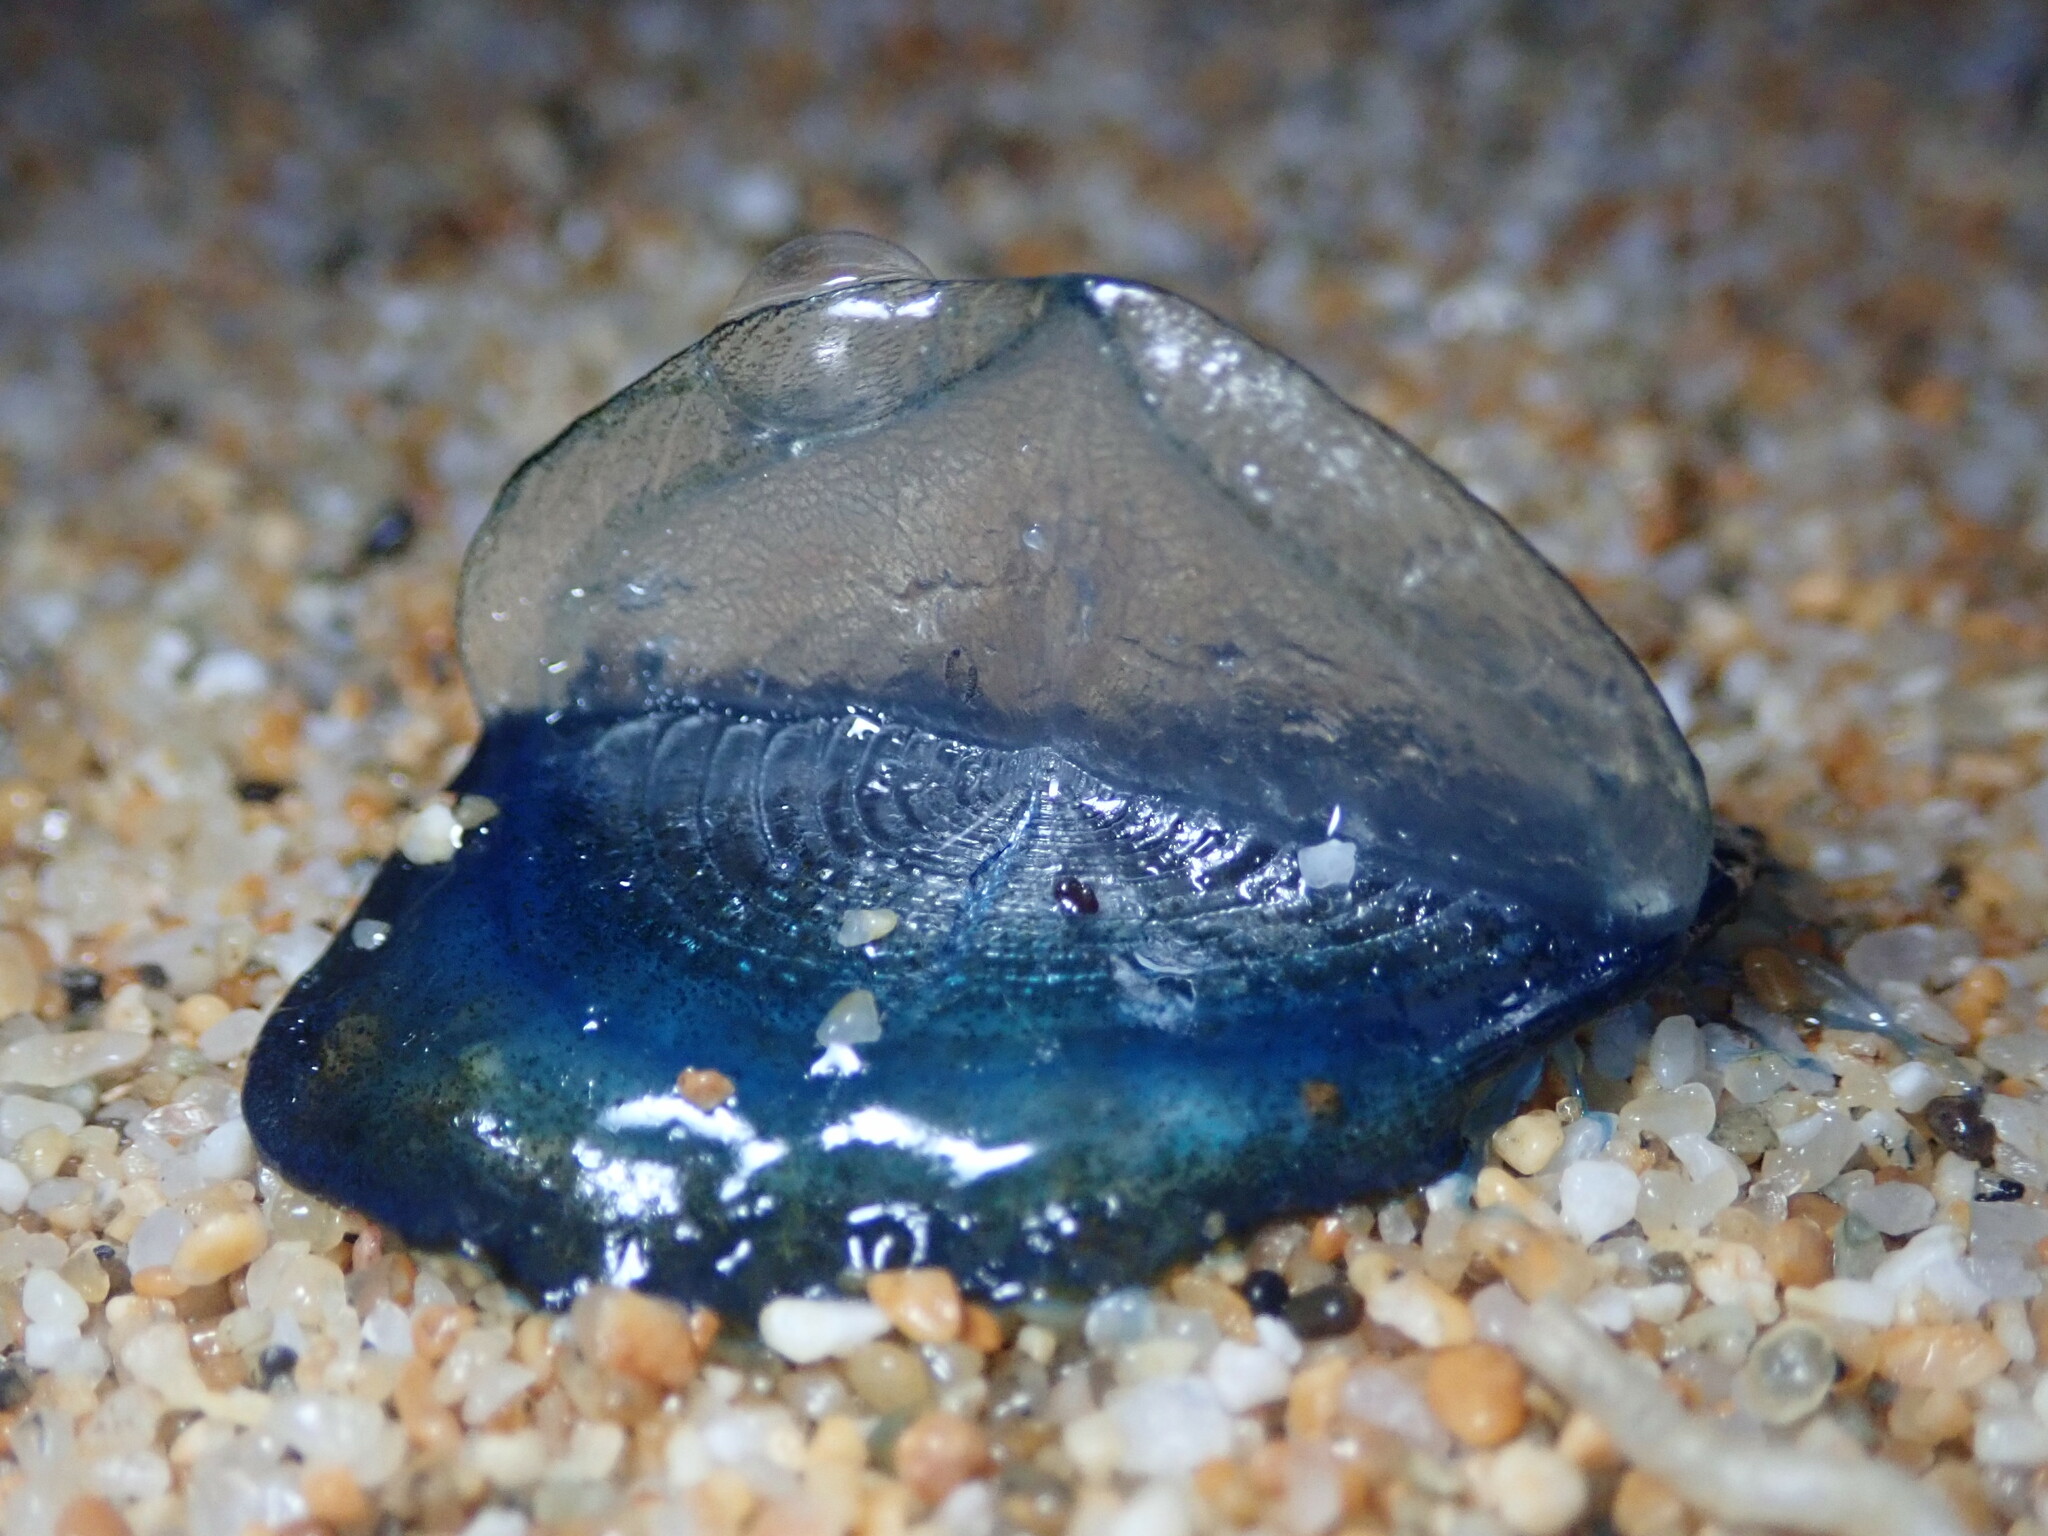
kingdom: Animalia
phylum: Cnidaria
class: Hydrozoa
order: Anthoathecata
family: Porpitidae
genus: Velella
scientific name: Velella velella
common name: By-the-wind-sailor
